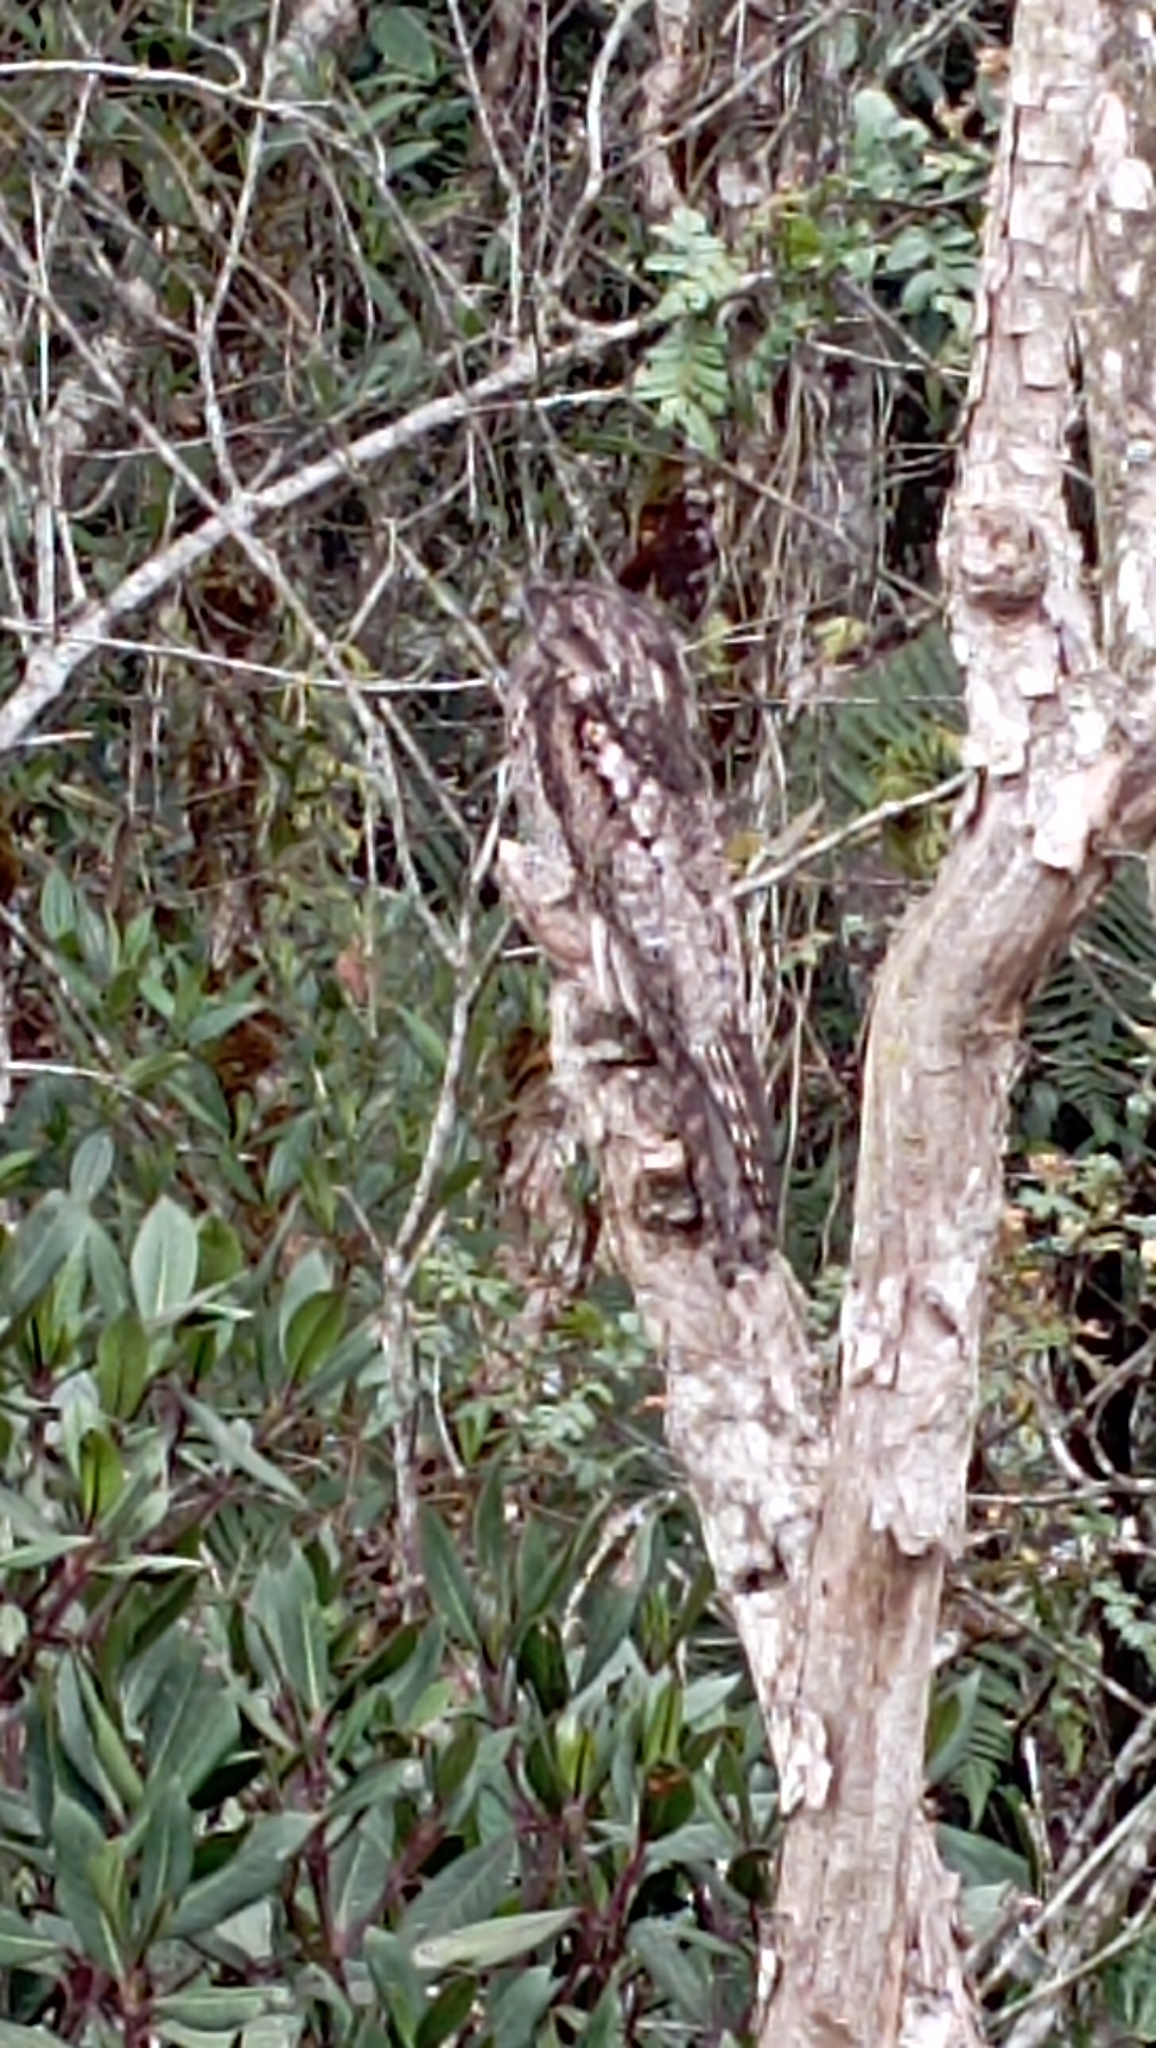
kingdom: Animalia
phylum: Chordata
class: Aves
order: Nyctibiiformes
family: Nyctibiidae
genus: Nyctibius
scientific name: Nyctibius griseus
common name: Common potoo
